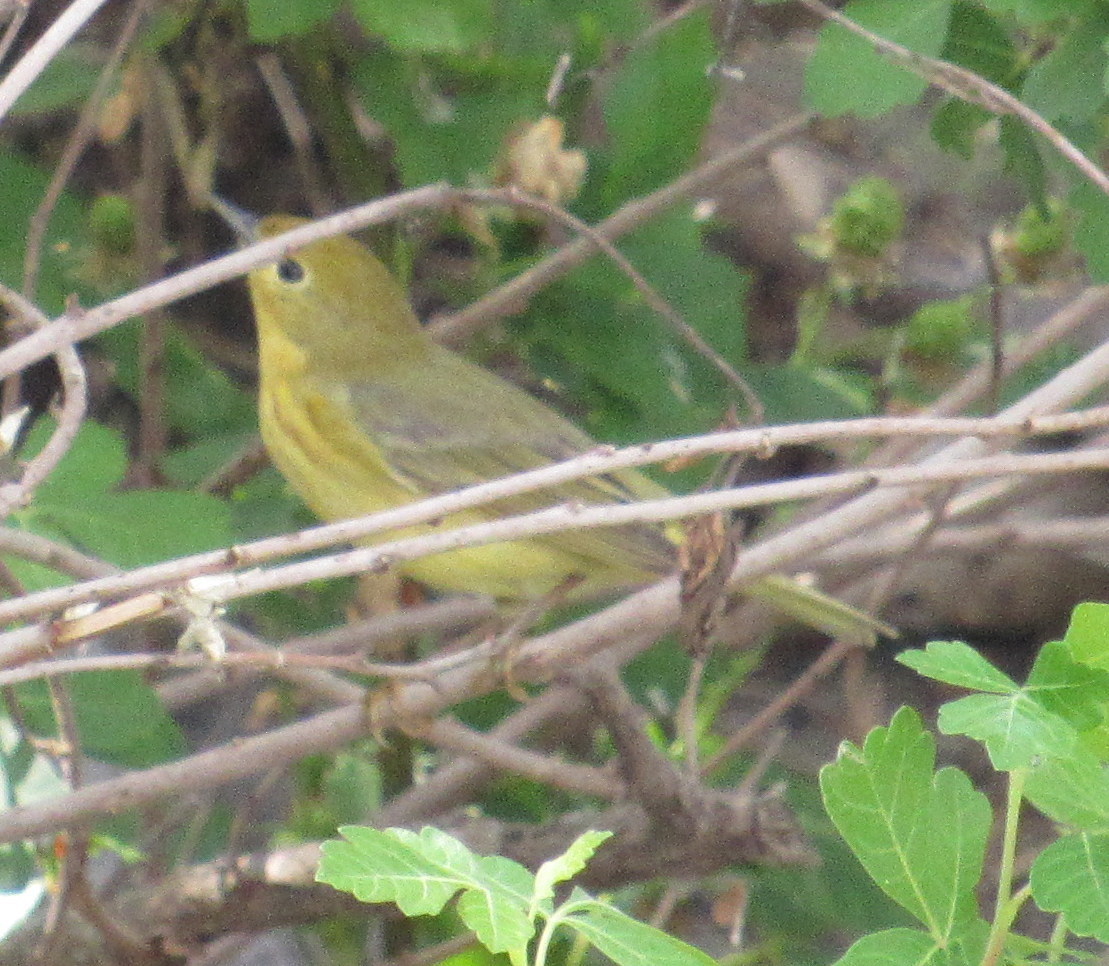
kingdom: Animalia
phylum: Chordata
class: Aves
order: Passeriformes
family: Parulidae
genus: Setophaga
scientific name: Setophaga petechia
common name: Yellow warbler
